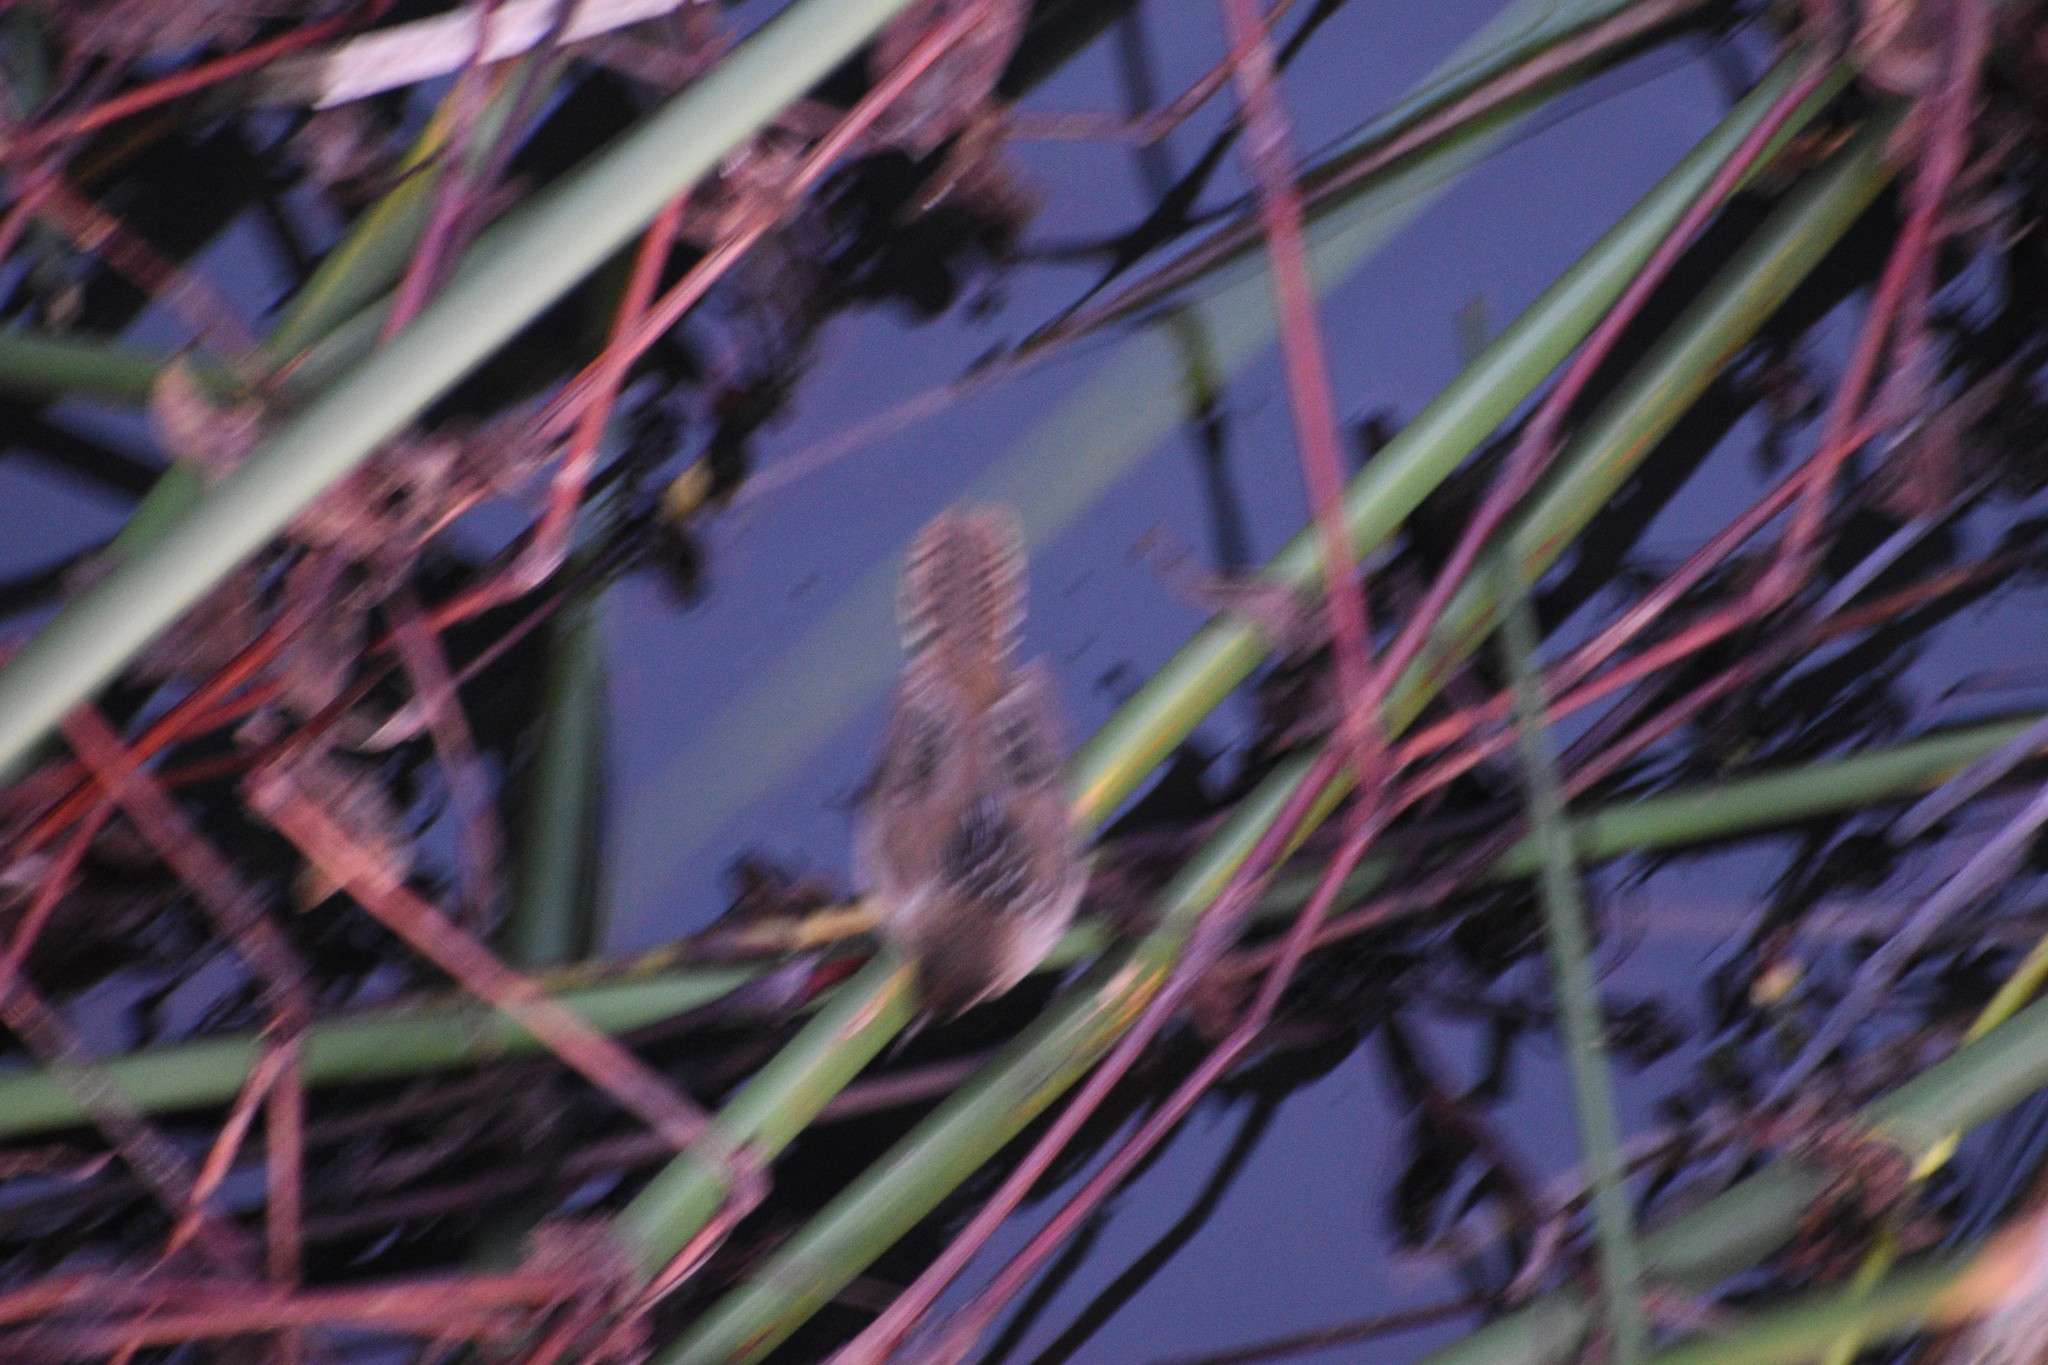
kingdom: Animalia
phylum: Chordata
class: Aves
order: Passeriformes
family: Troglodytidae
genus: Cistothorus
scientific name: Cistothorus palustris
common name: Marsh wren
